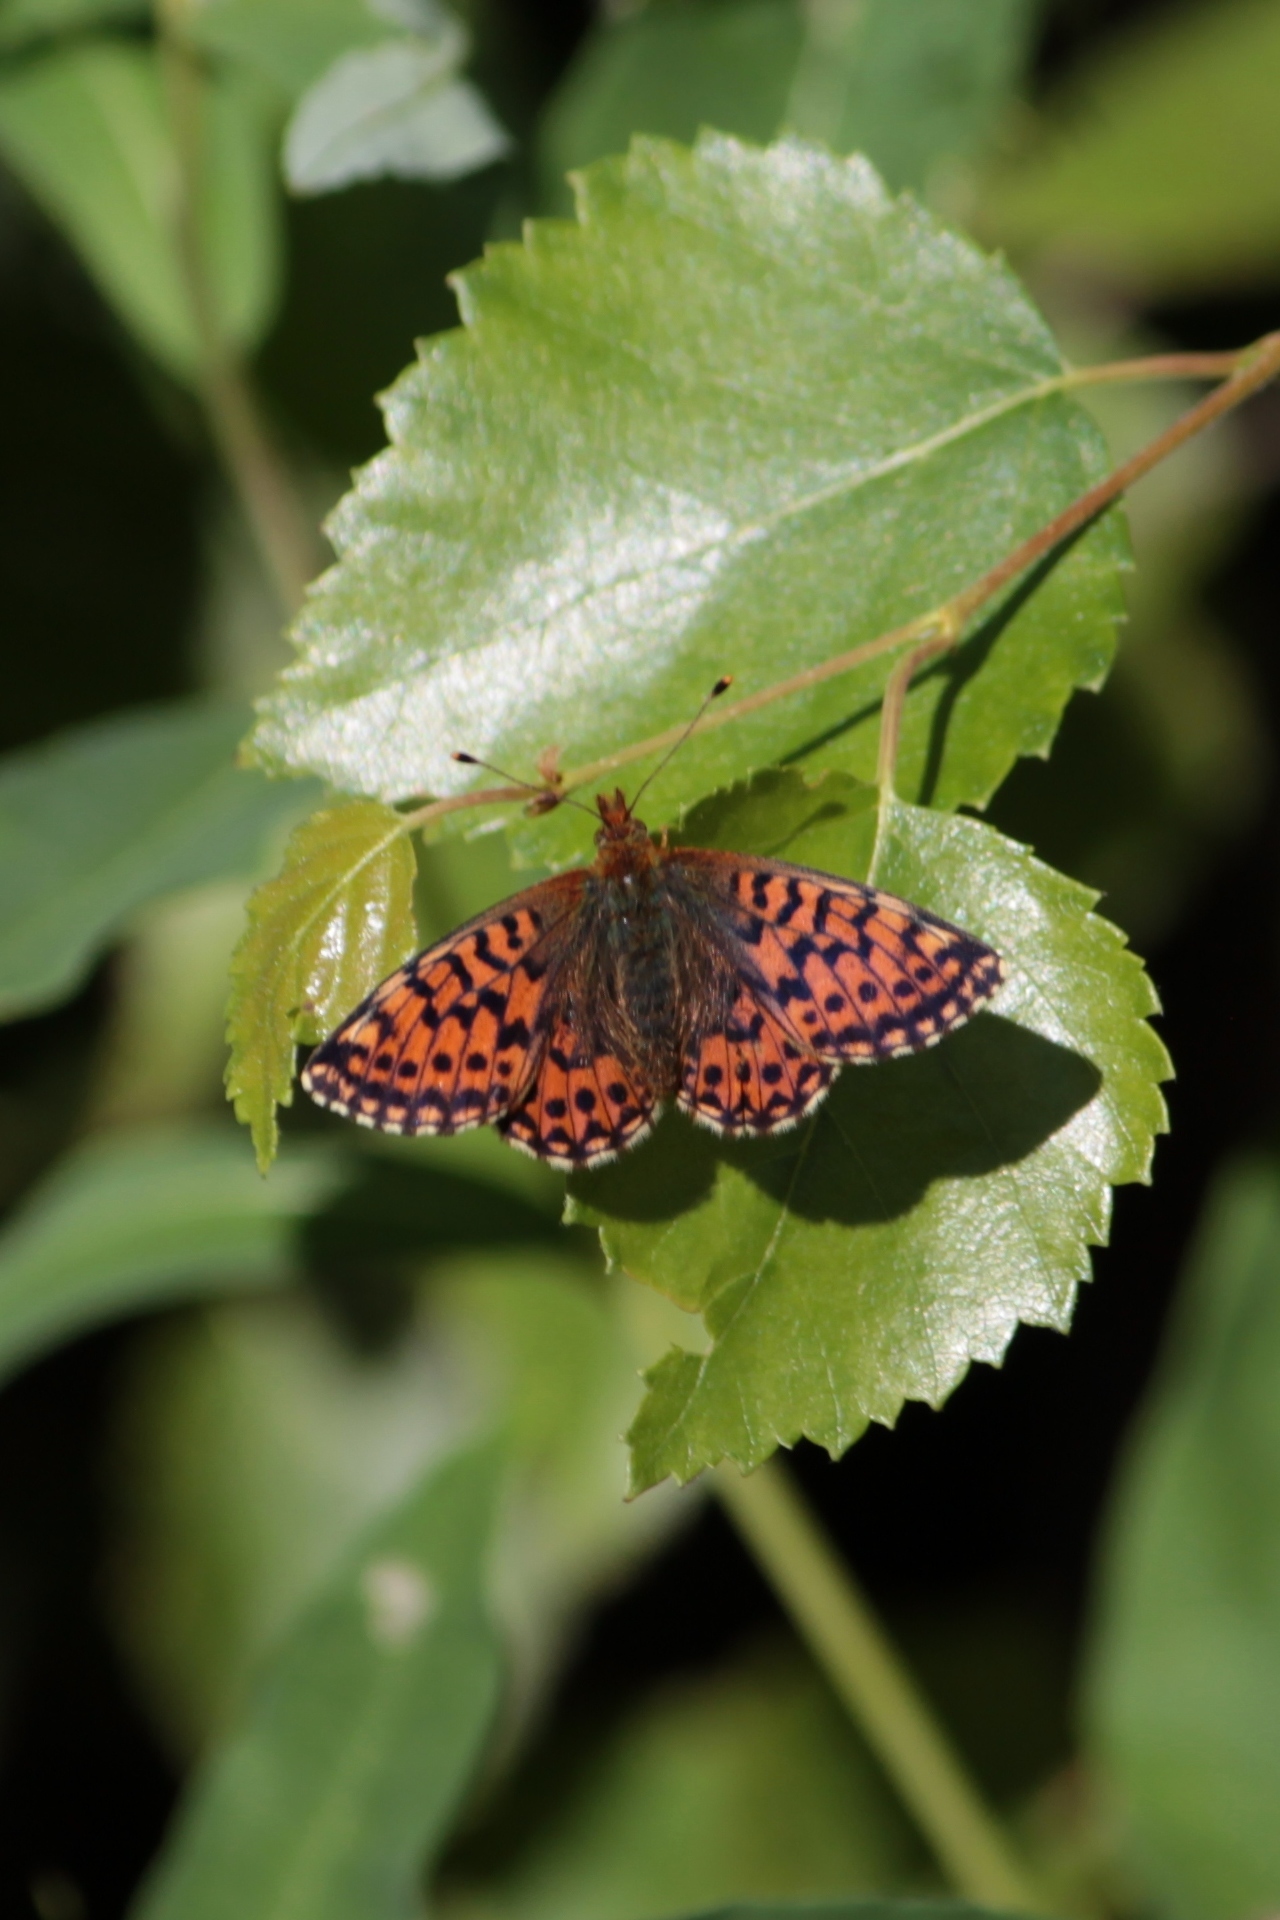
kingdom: Animalia
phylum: Arthropoda
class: Insecta
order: Lepidoptera
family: Nymphalidae
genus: Boloria
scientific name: Boloria aquilonaris
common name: Cranberry fritillary
